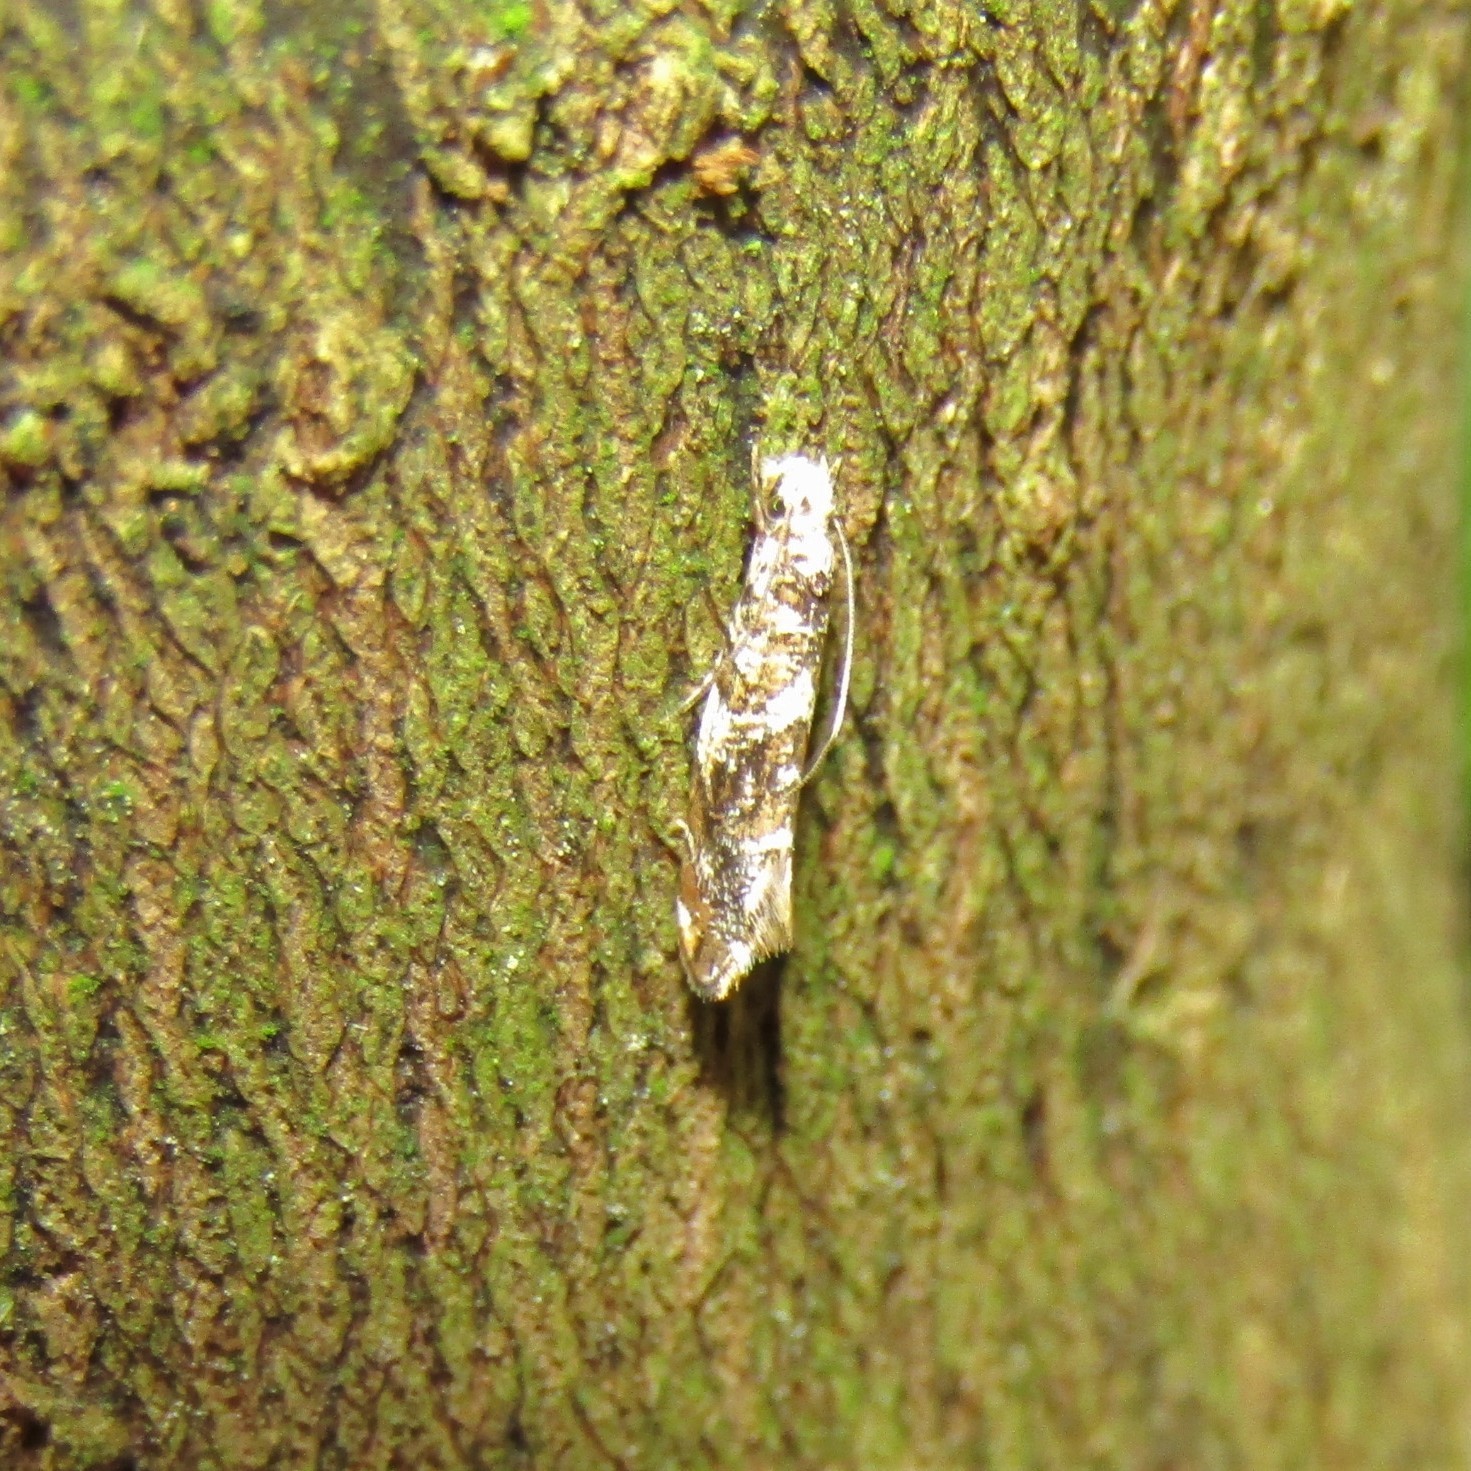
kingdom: Animalia
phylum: Arthropoda
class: Insecta
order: Lepidoptera
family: Tineidae
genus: Eschatotypa
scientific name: Eschatotypa derogatella
